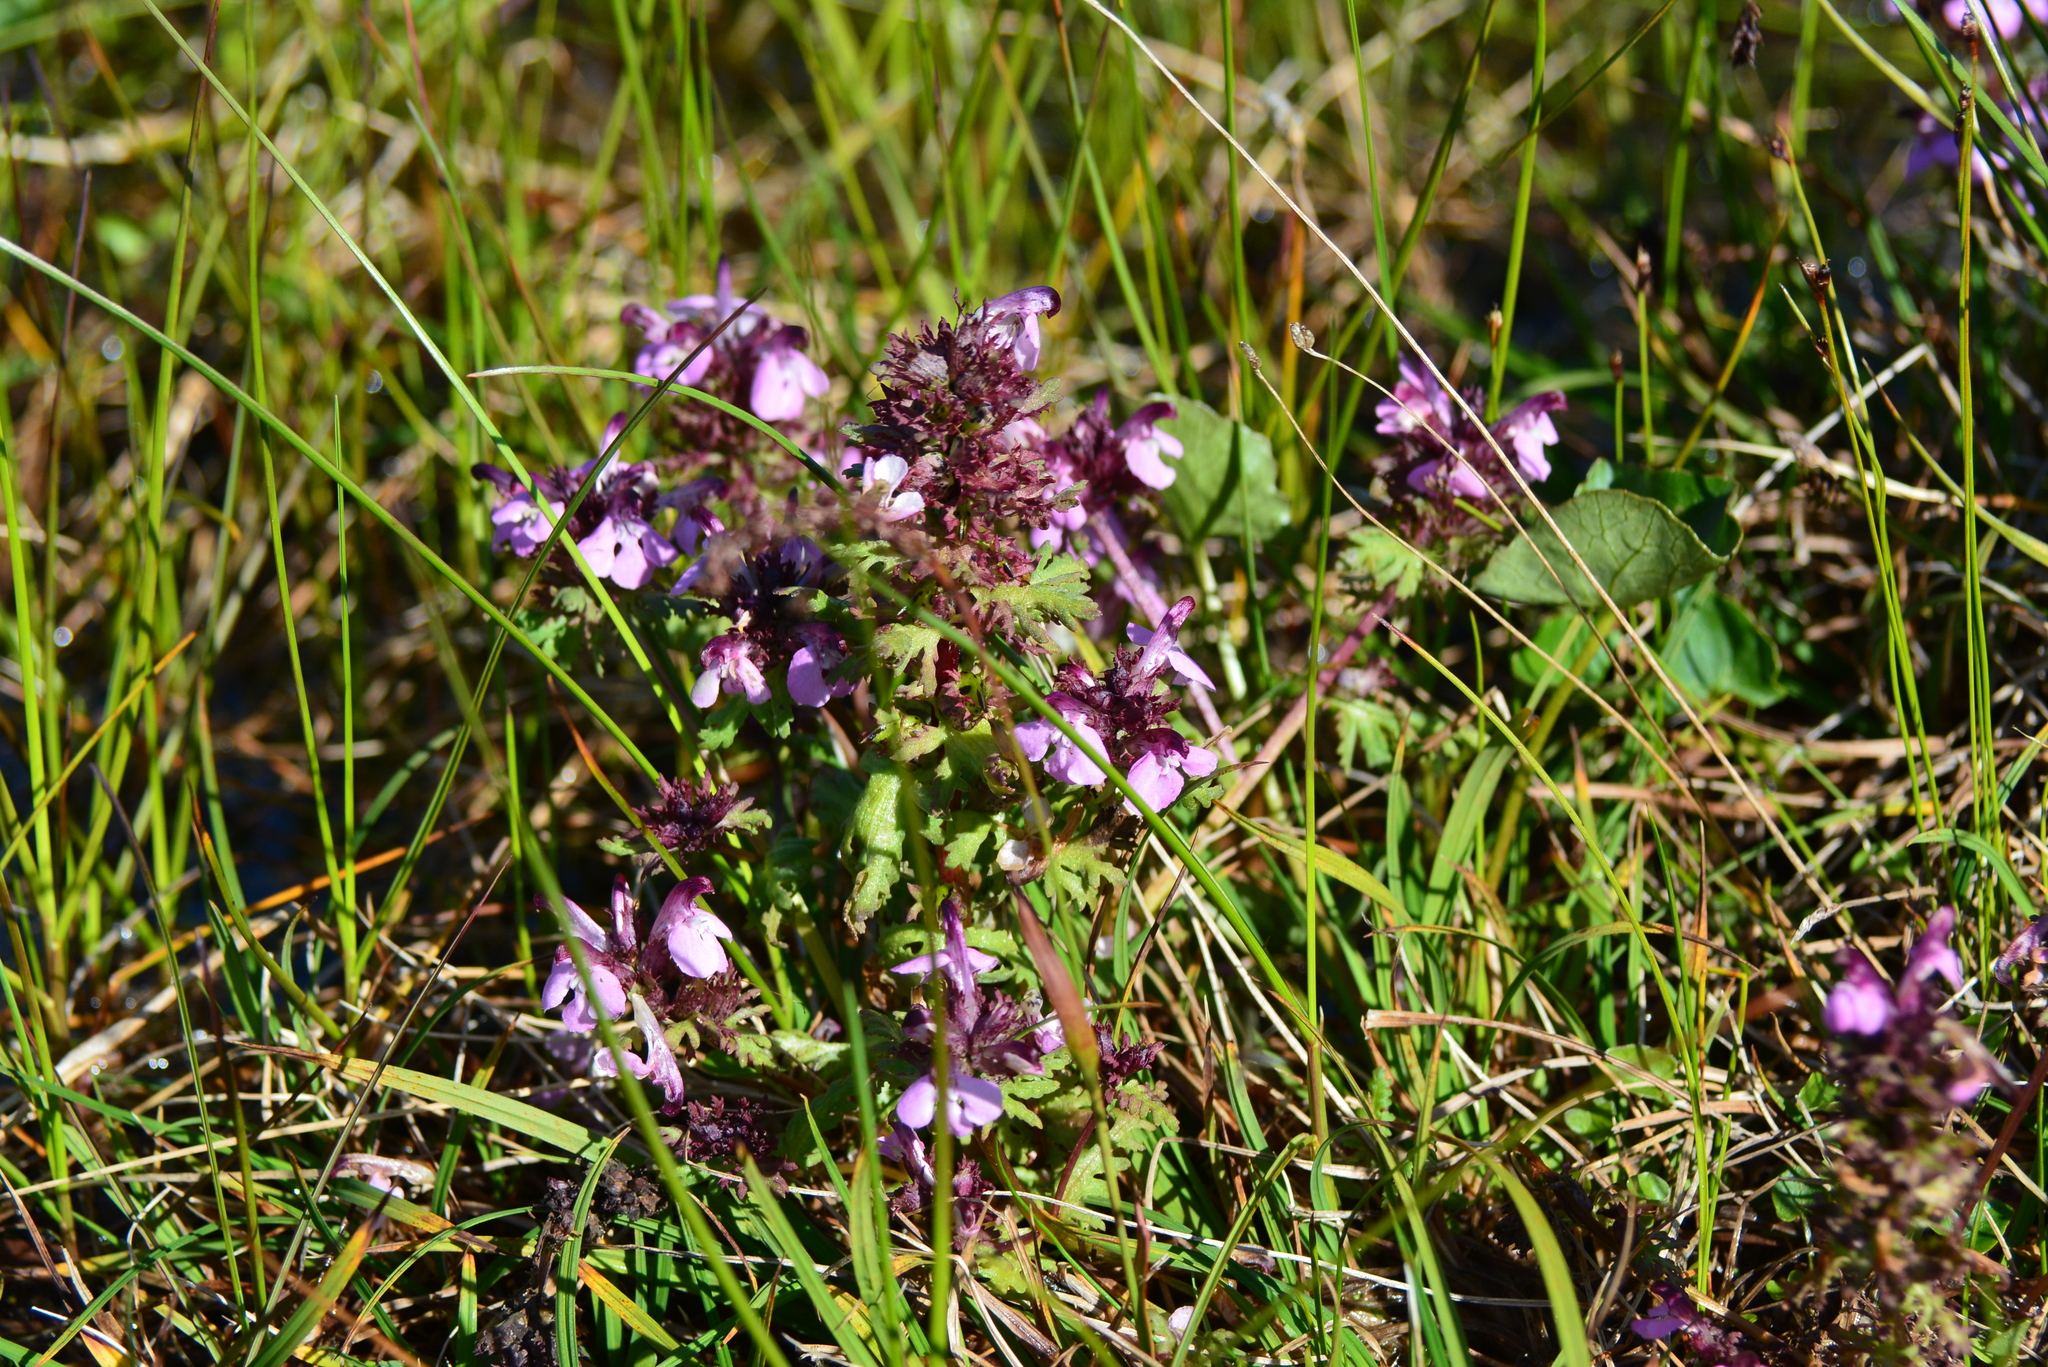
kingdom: Plantae
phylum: Tracheophyta
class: Magnoliopsida
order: Lamiales
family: Orobanchaceae
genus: Pedicularis
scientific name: Pedicularis pennellii
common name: Pennell's lousewort
